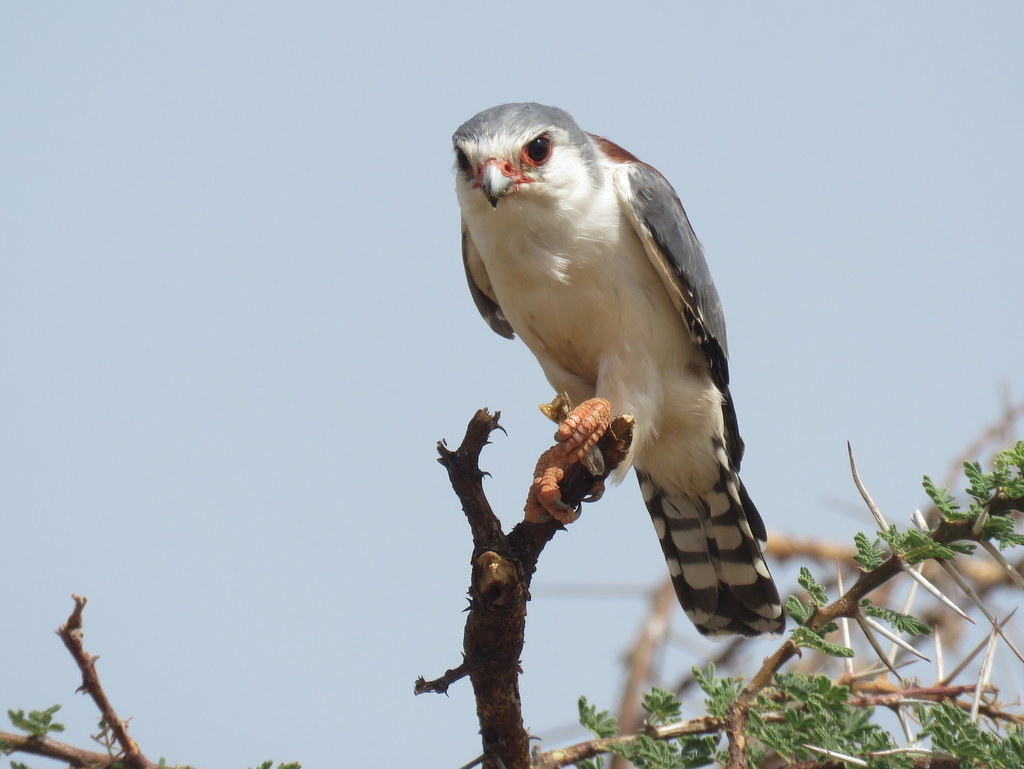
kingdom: Animalia
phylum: Chordata
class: Aves
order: Falconiformes
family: Falconidae
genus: Polihierax
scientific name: Polihierax semitorquatus
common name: Pygmy falcon
